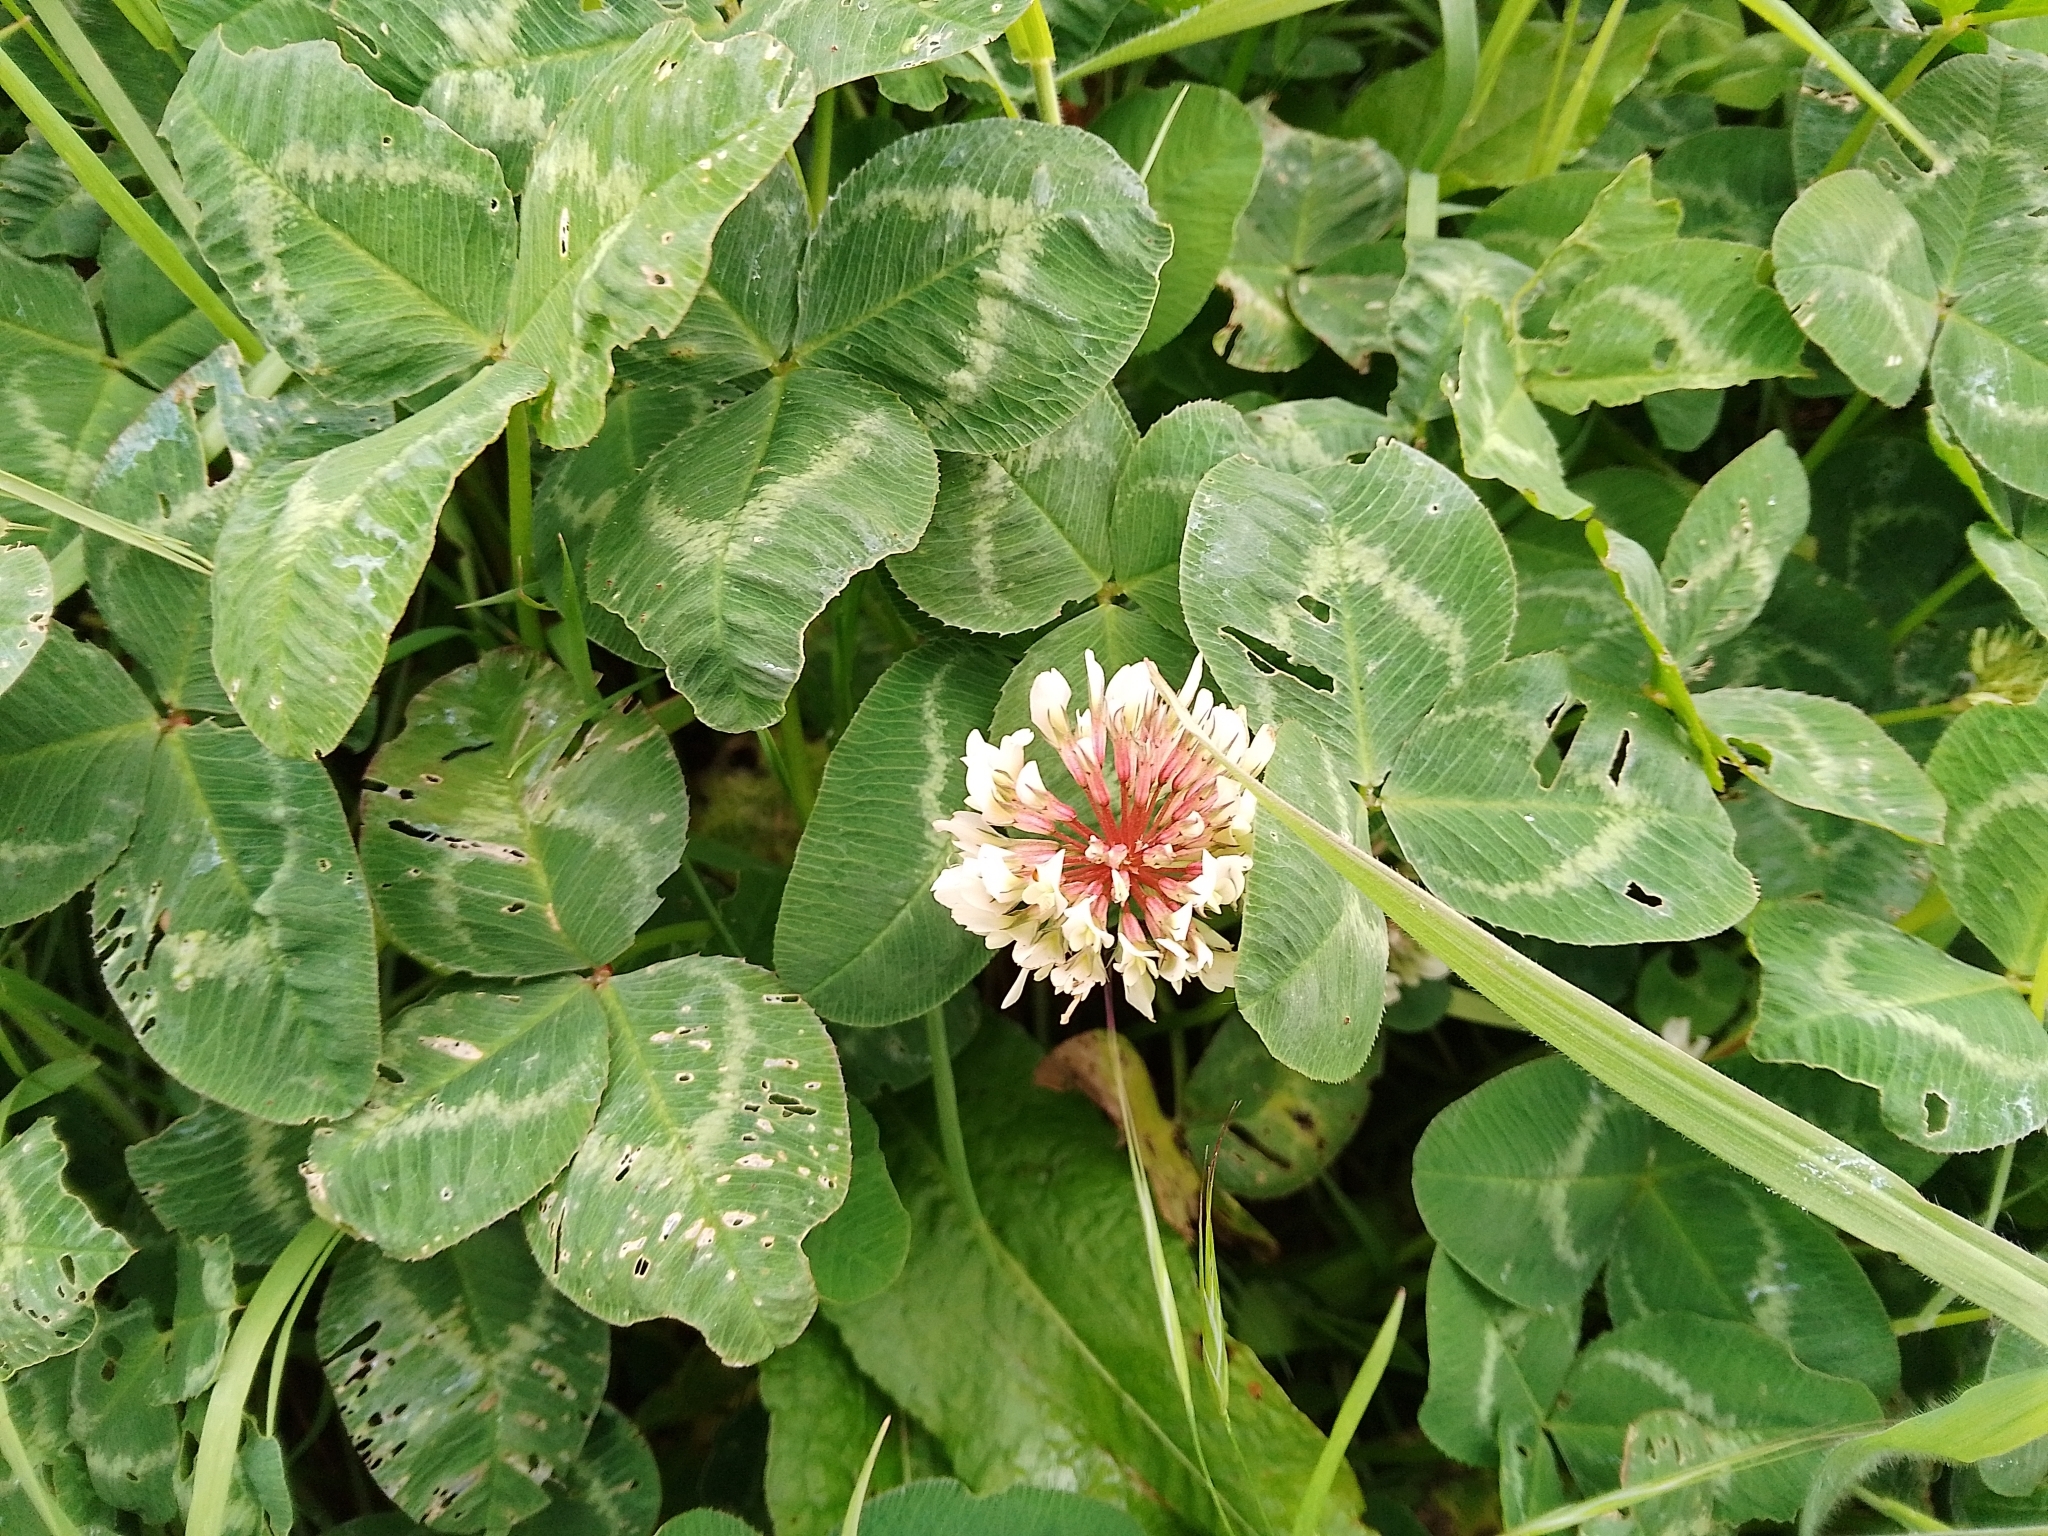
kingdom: Plantae
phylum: Tracheophyta
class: Magnoliopsida
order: Fabales
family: Fabaceae
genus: Trifolium
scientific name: Trifolium repens
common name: White clover
